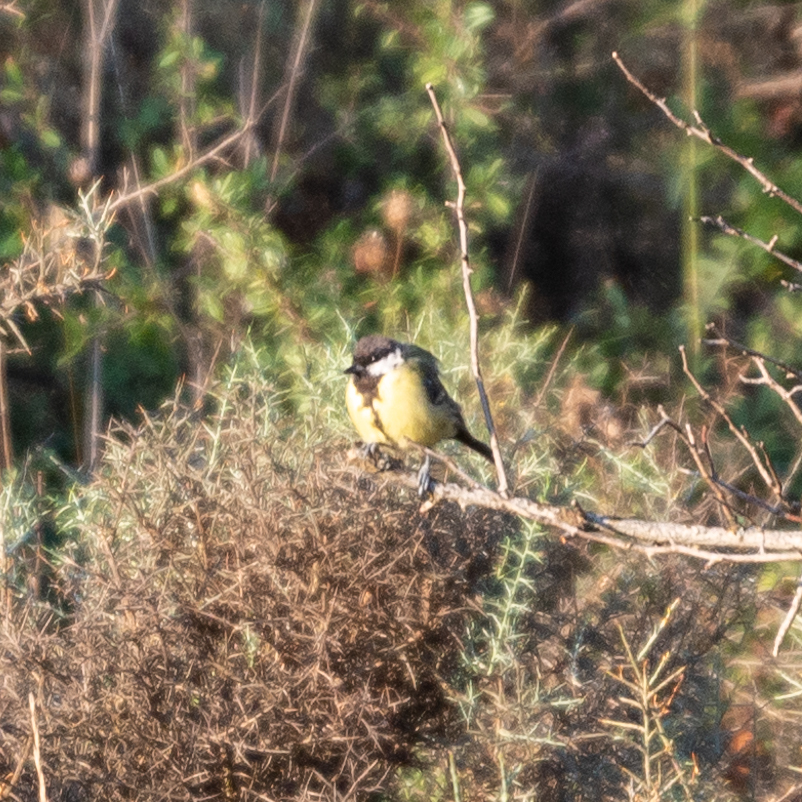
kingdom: Animalia
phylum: Chordata
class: Aves
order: Passeriformes
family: Paridae
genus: Parus
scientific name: Parus major
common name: Great tit
